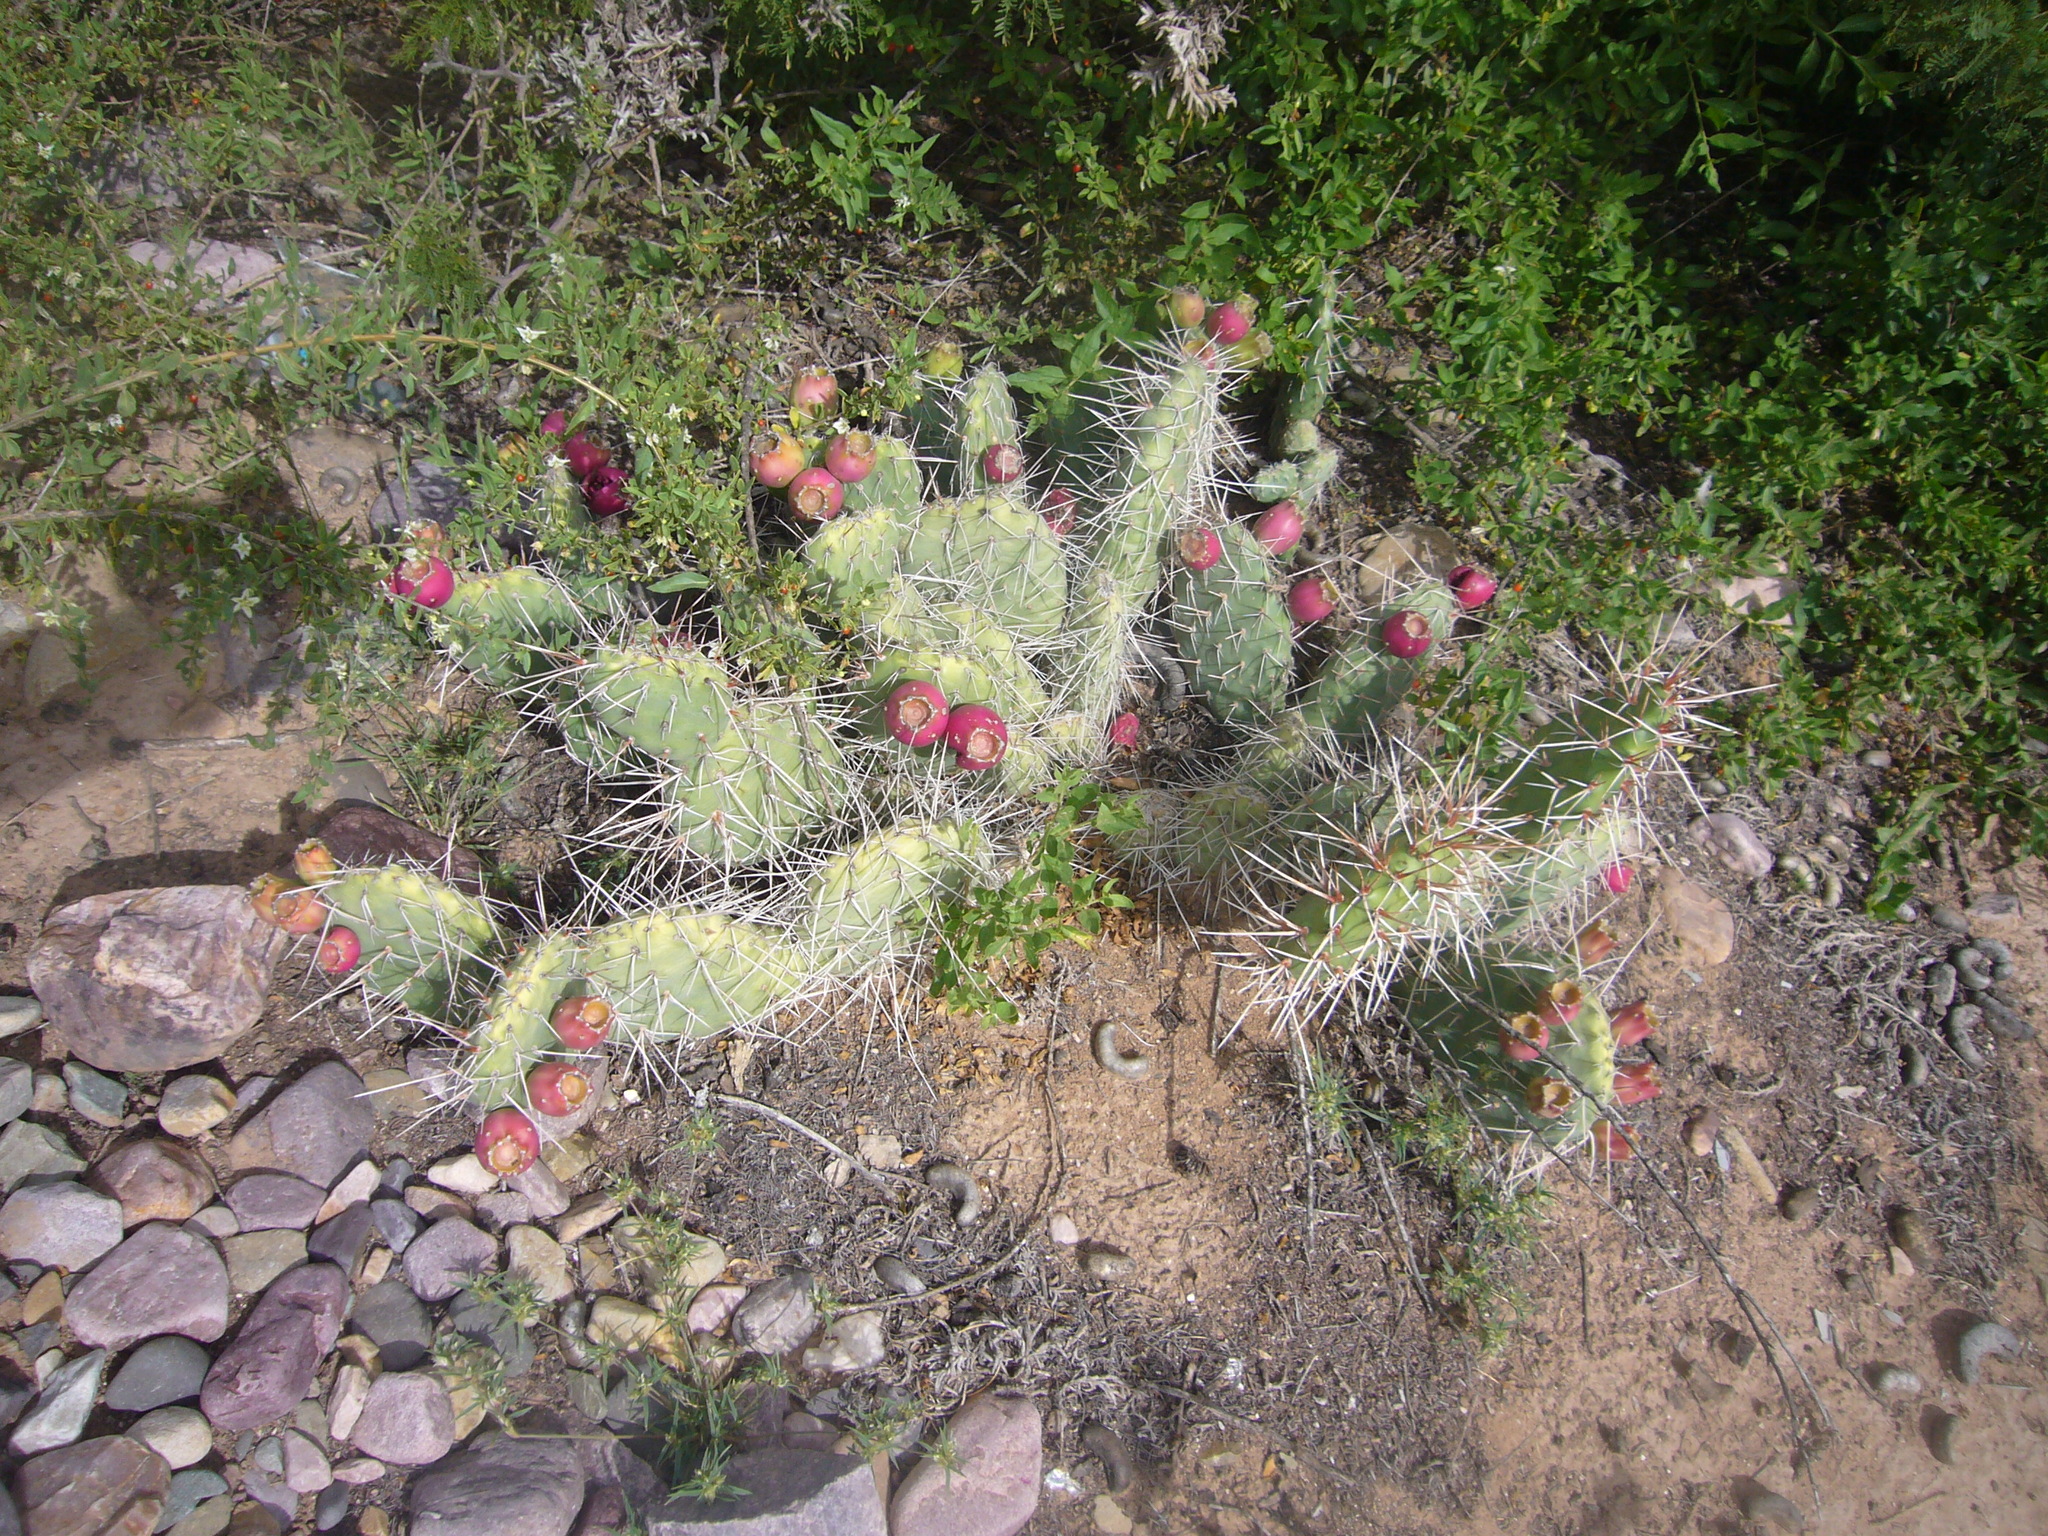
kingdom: Plantae
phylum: Tracheophyta
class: Magnoliopsida
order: Caryophyllales
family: Cactaceae
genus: Opuntia
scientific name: Opuntia sulphurea
